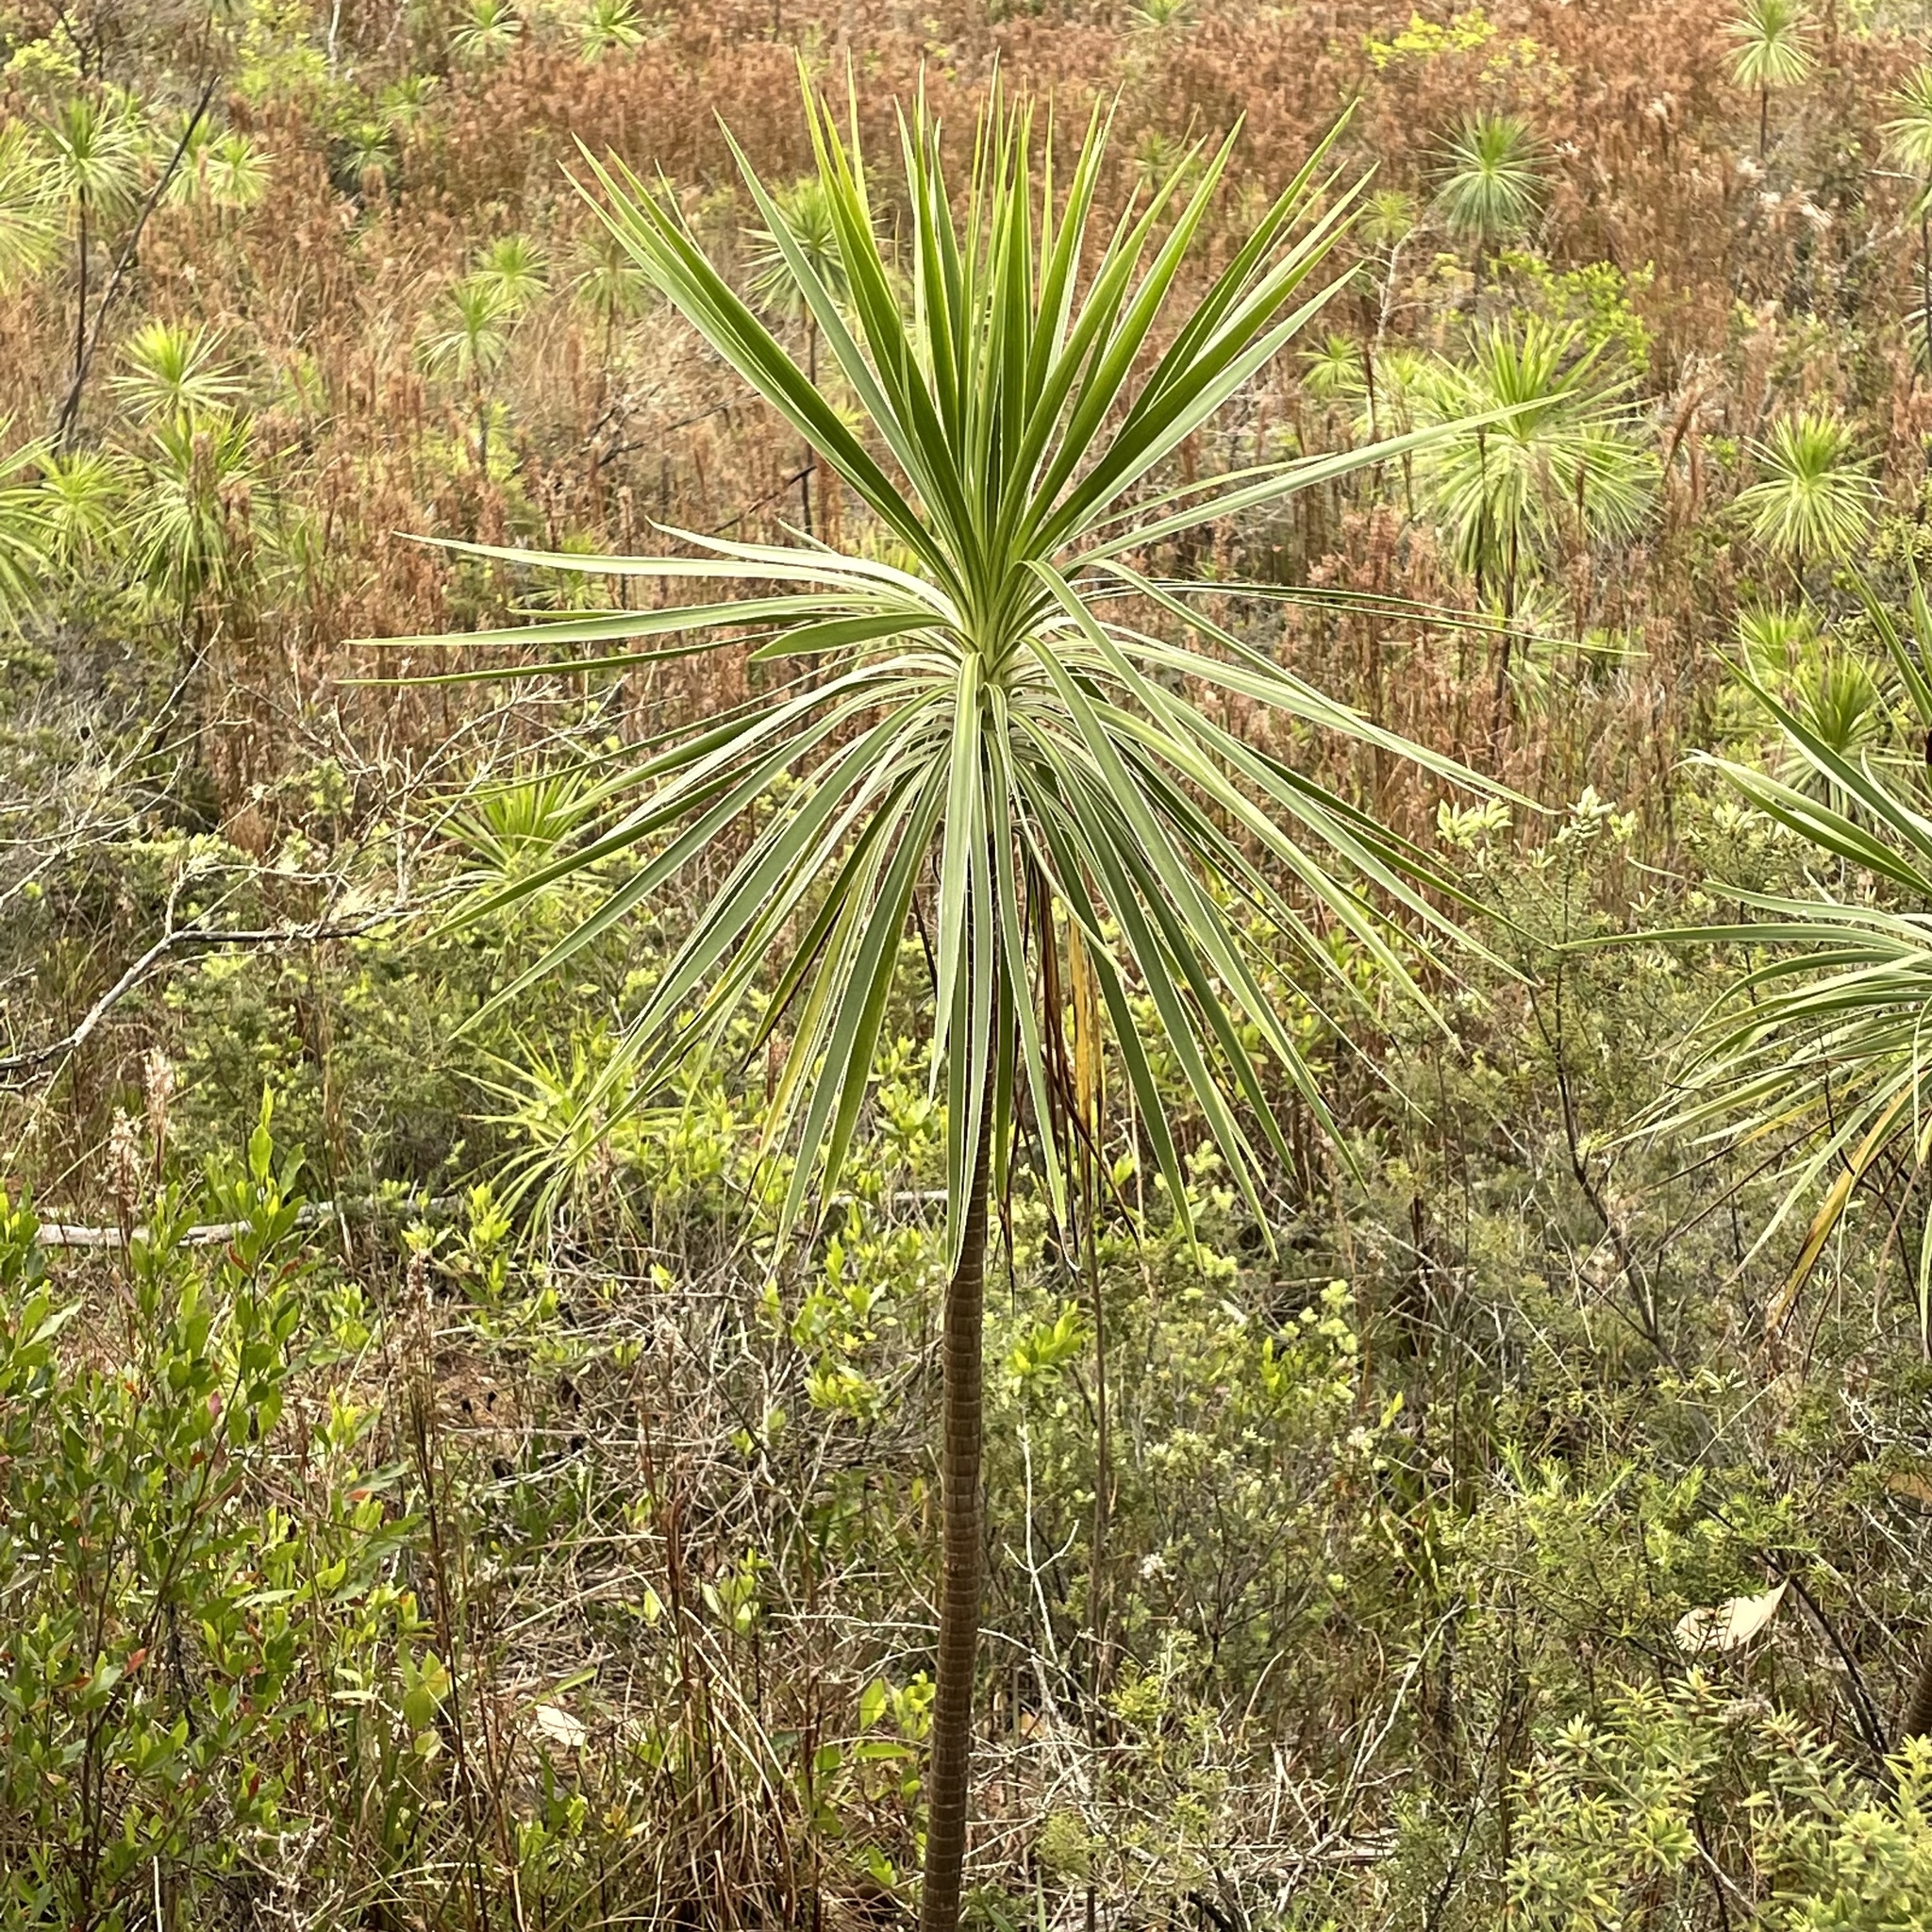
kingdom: Plantae
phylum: Tracheophyta
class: Magnoliopsida
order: Asterales
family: Asteraceae
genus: Wilkesia
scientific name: Wilkesia gymnoxiphium
